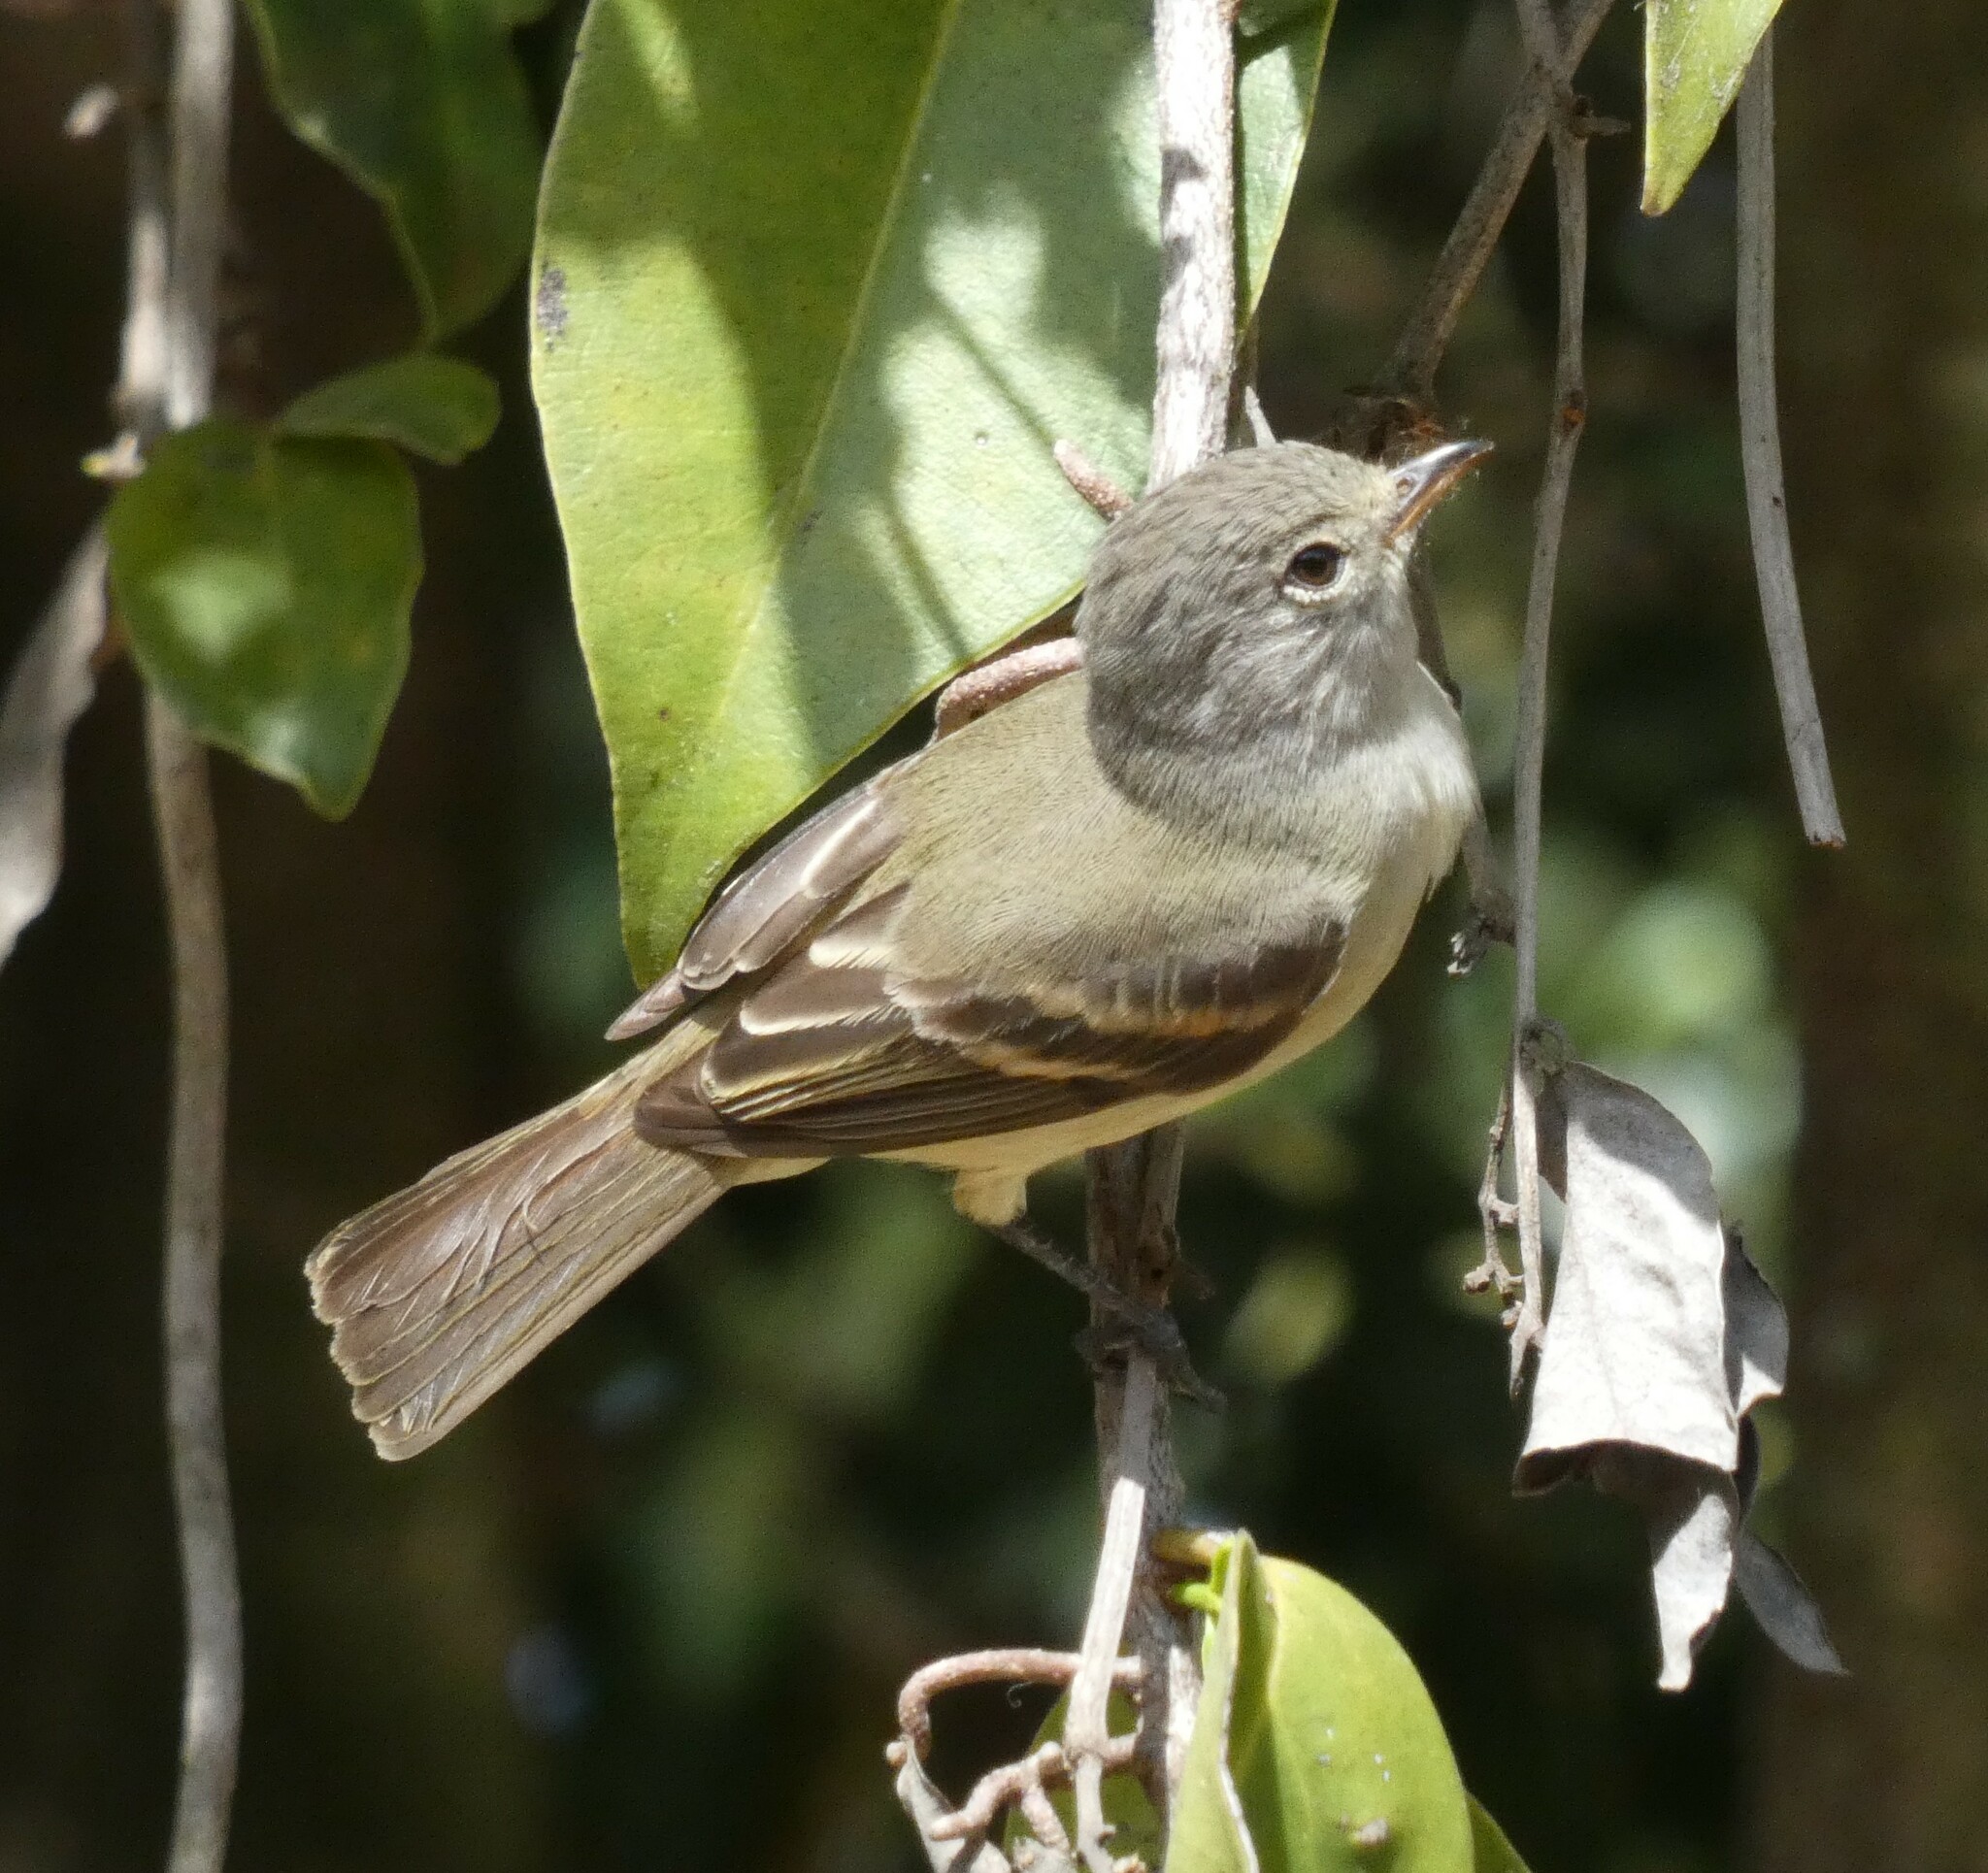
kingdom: Animalia
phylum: Chordata
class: Aves
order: Passeriformes
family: Tyrannidae
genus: Camptostoma
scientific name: Camptostoma obsoletum
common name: Southern beardless-tyrannulet
